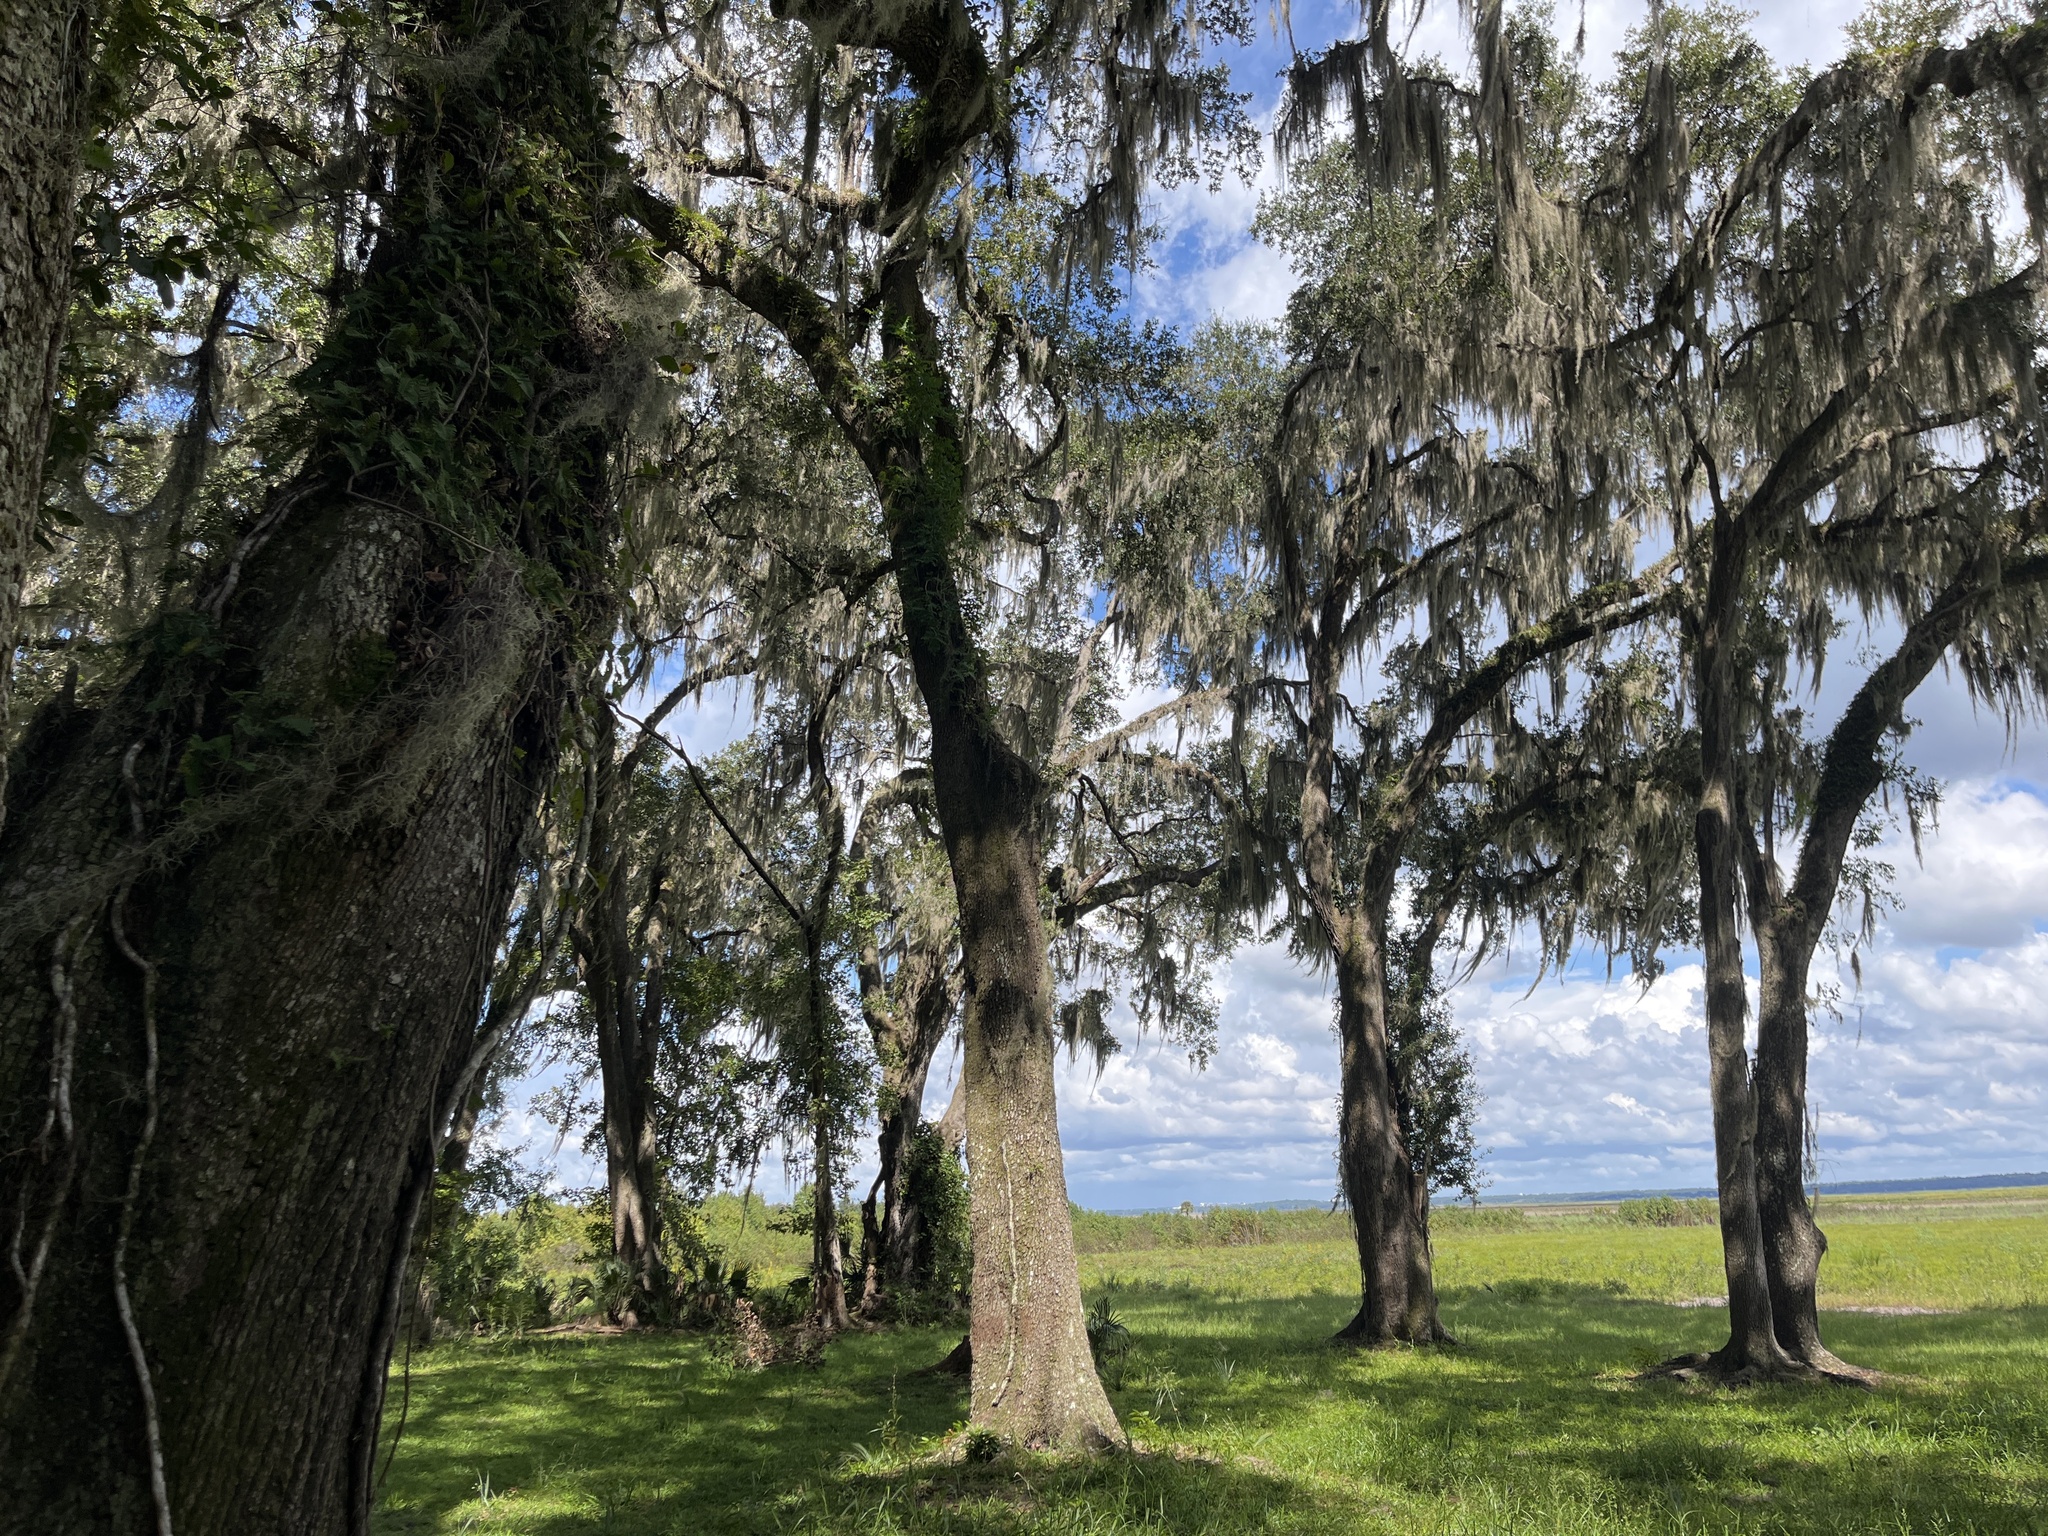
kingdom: Plantae
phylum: Tracheophyta
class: Magnoliopsida
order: Fagales
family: Fagaceae
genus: Quercus
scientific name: Quercus virginiana
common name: Southern live oak
